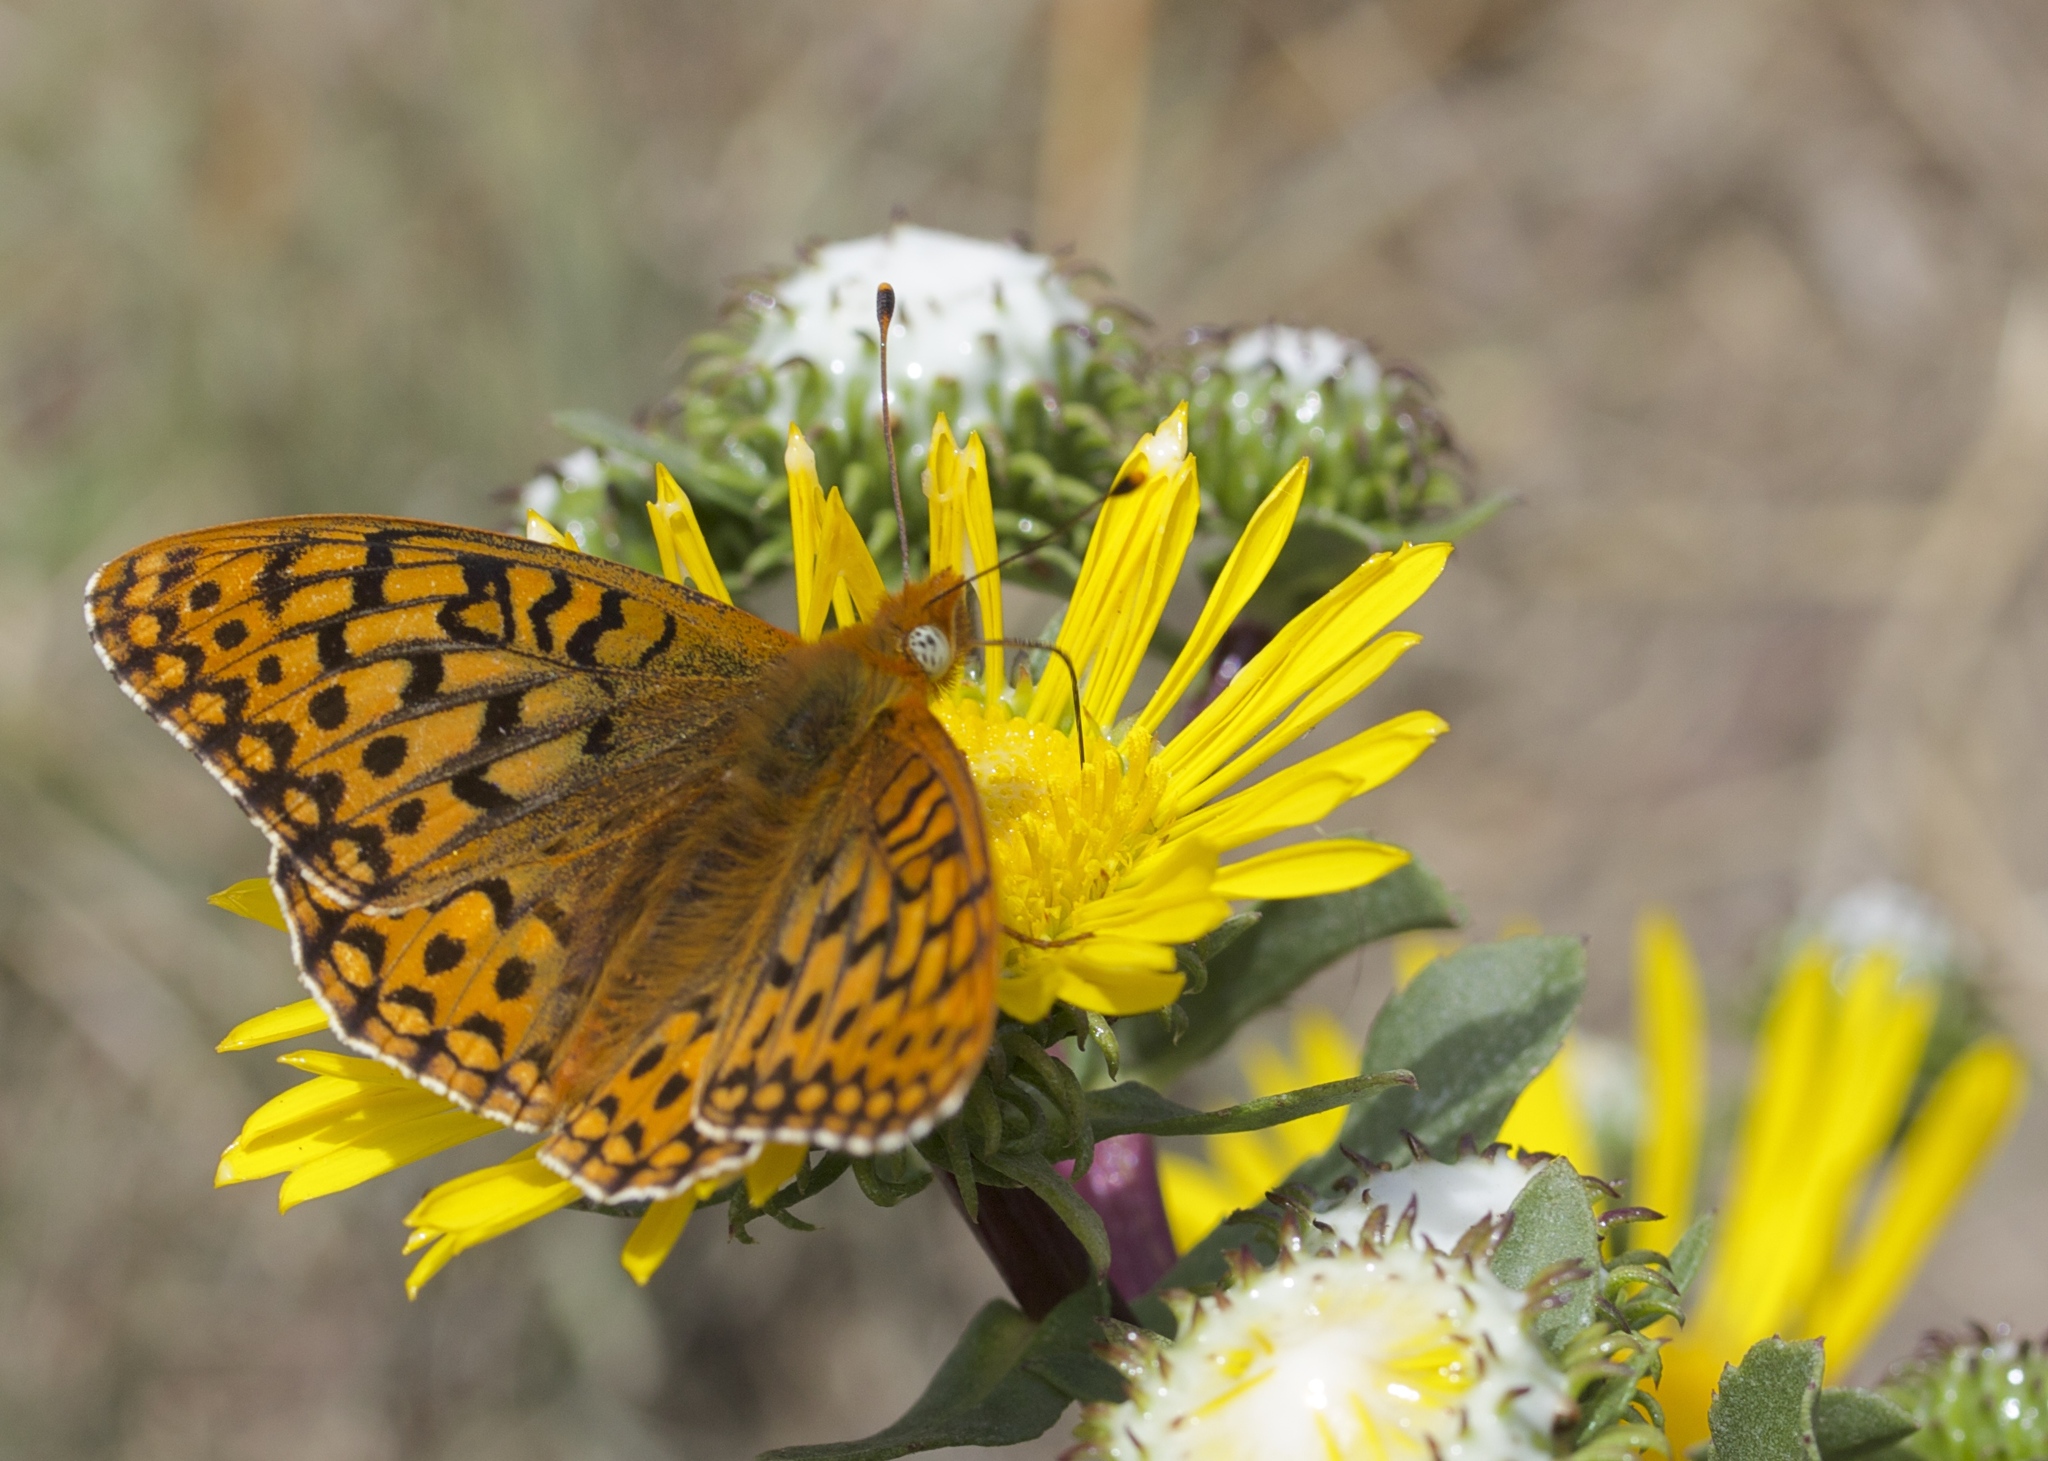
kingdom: Animalia
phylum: Arthropoda
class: Insecta
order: Lepidoptera
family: Nymphalidae
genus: Speyeria
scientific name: Speyeria zerene
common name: Zerene fritillary
